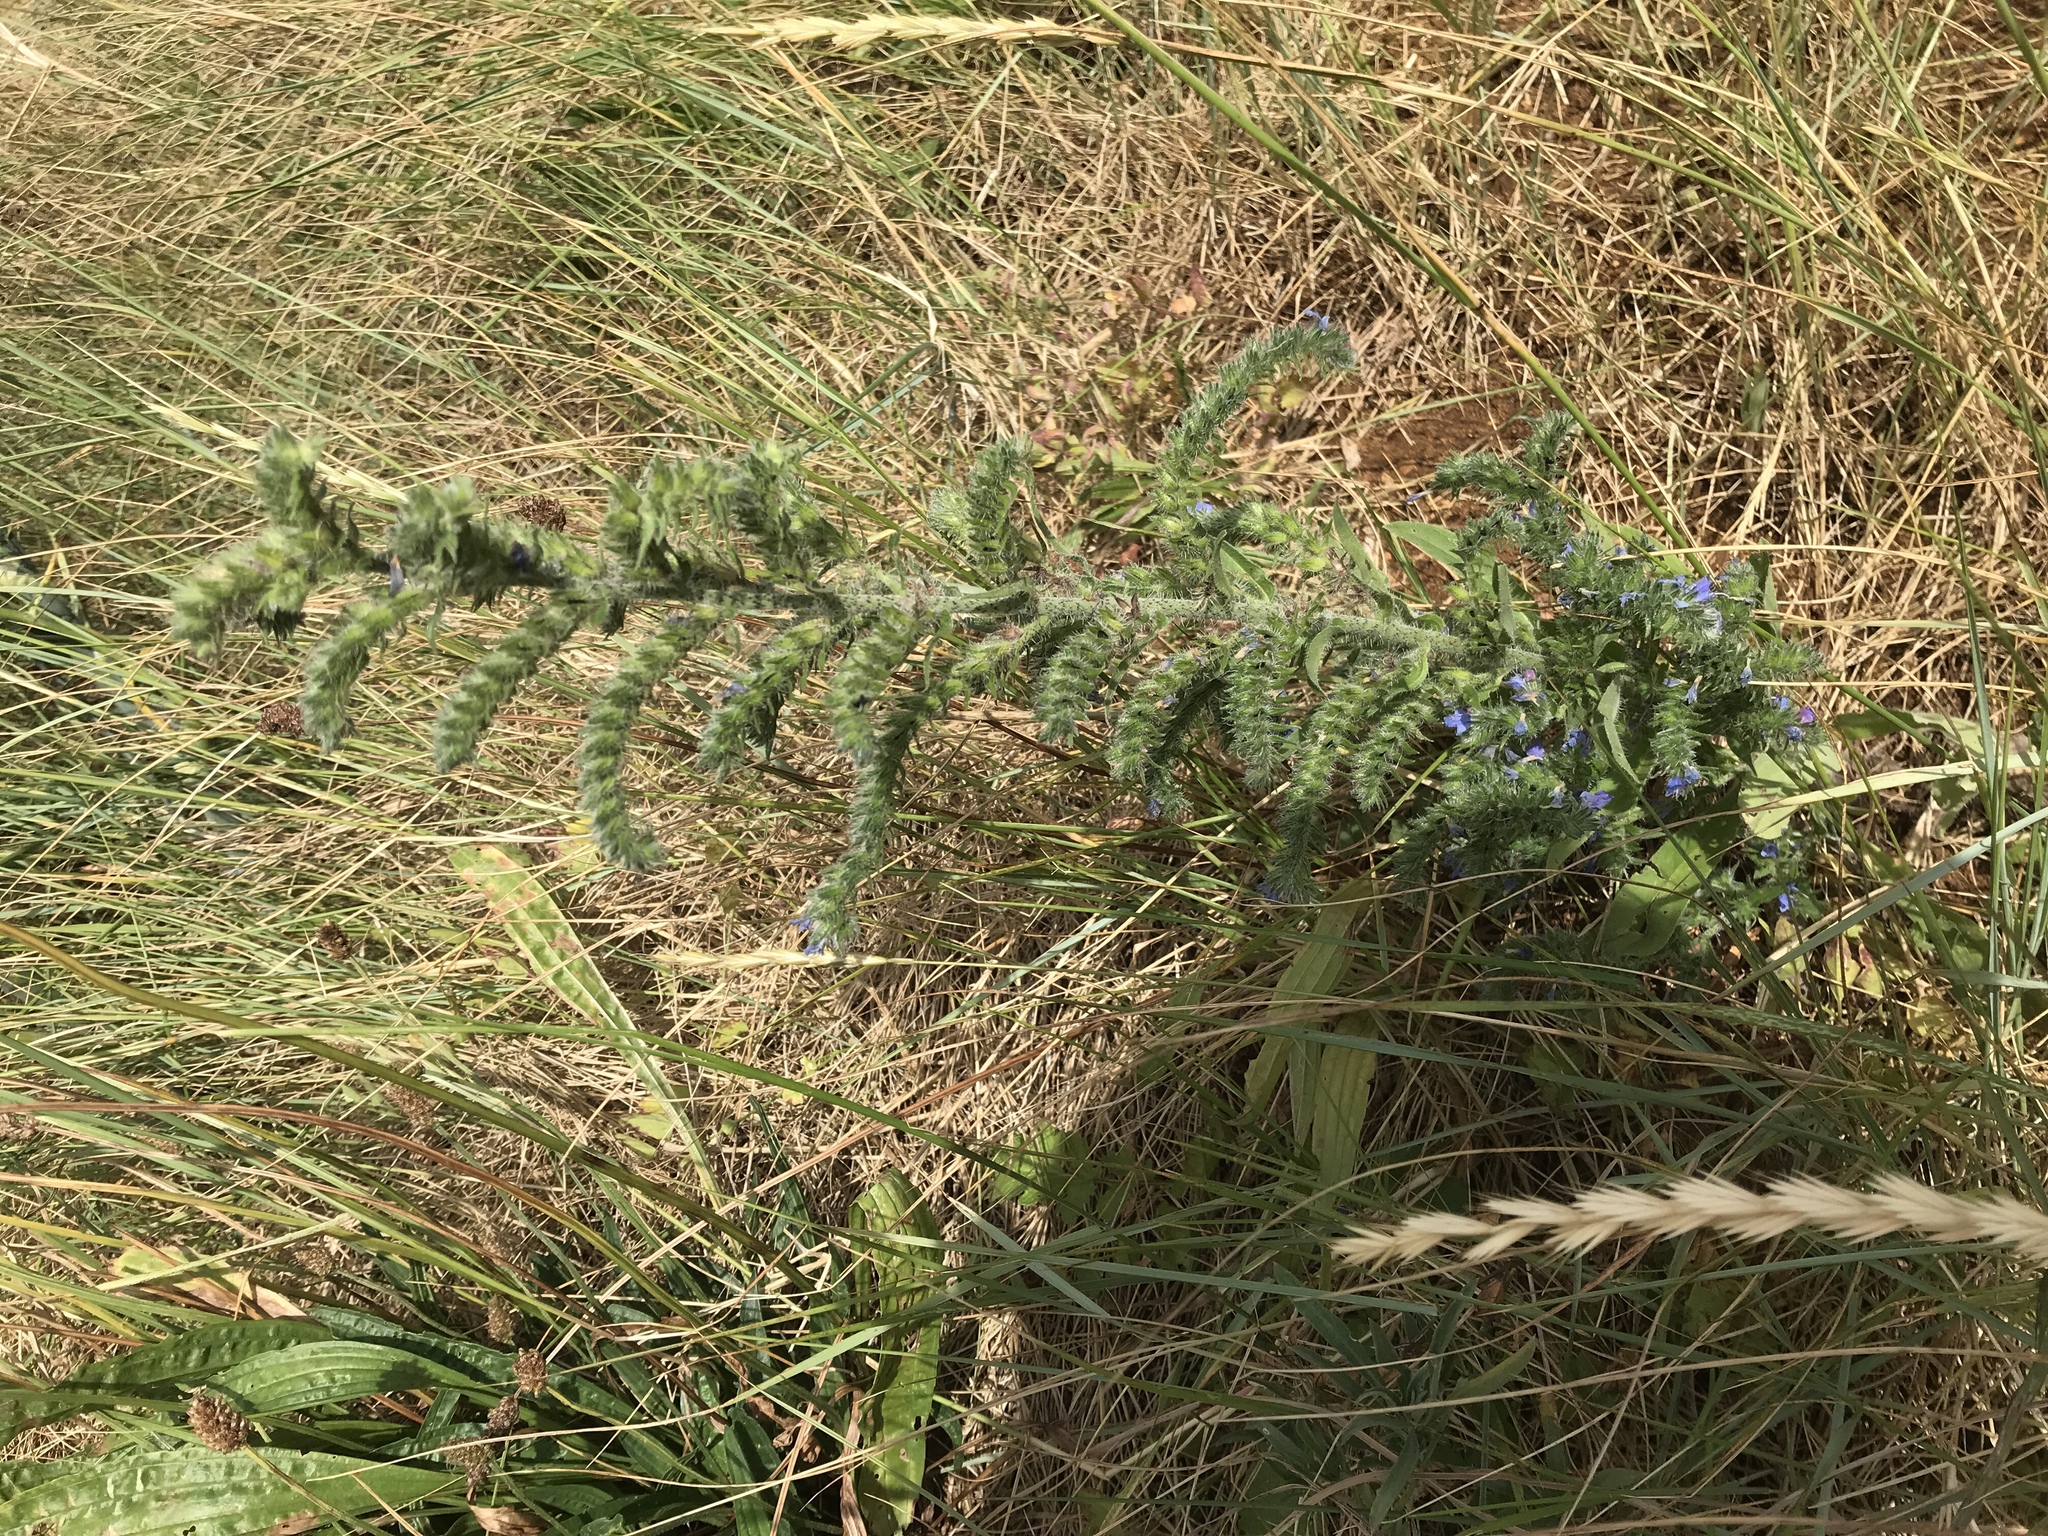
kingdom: Plantae
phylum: Tracheophyta
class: Magnoliopsida
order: Boraginales
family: Boraginaceae
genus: Echium
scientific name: Echium vulgare
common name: Common viper's bugloss
